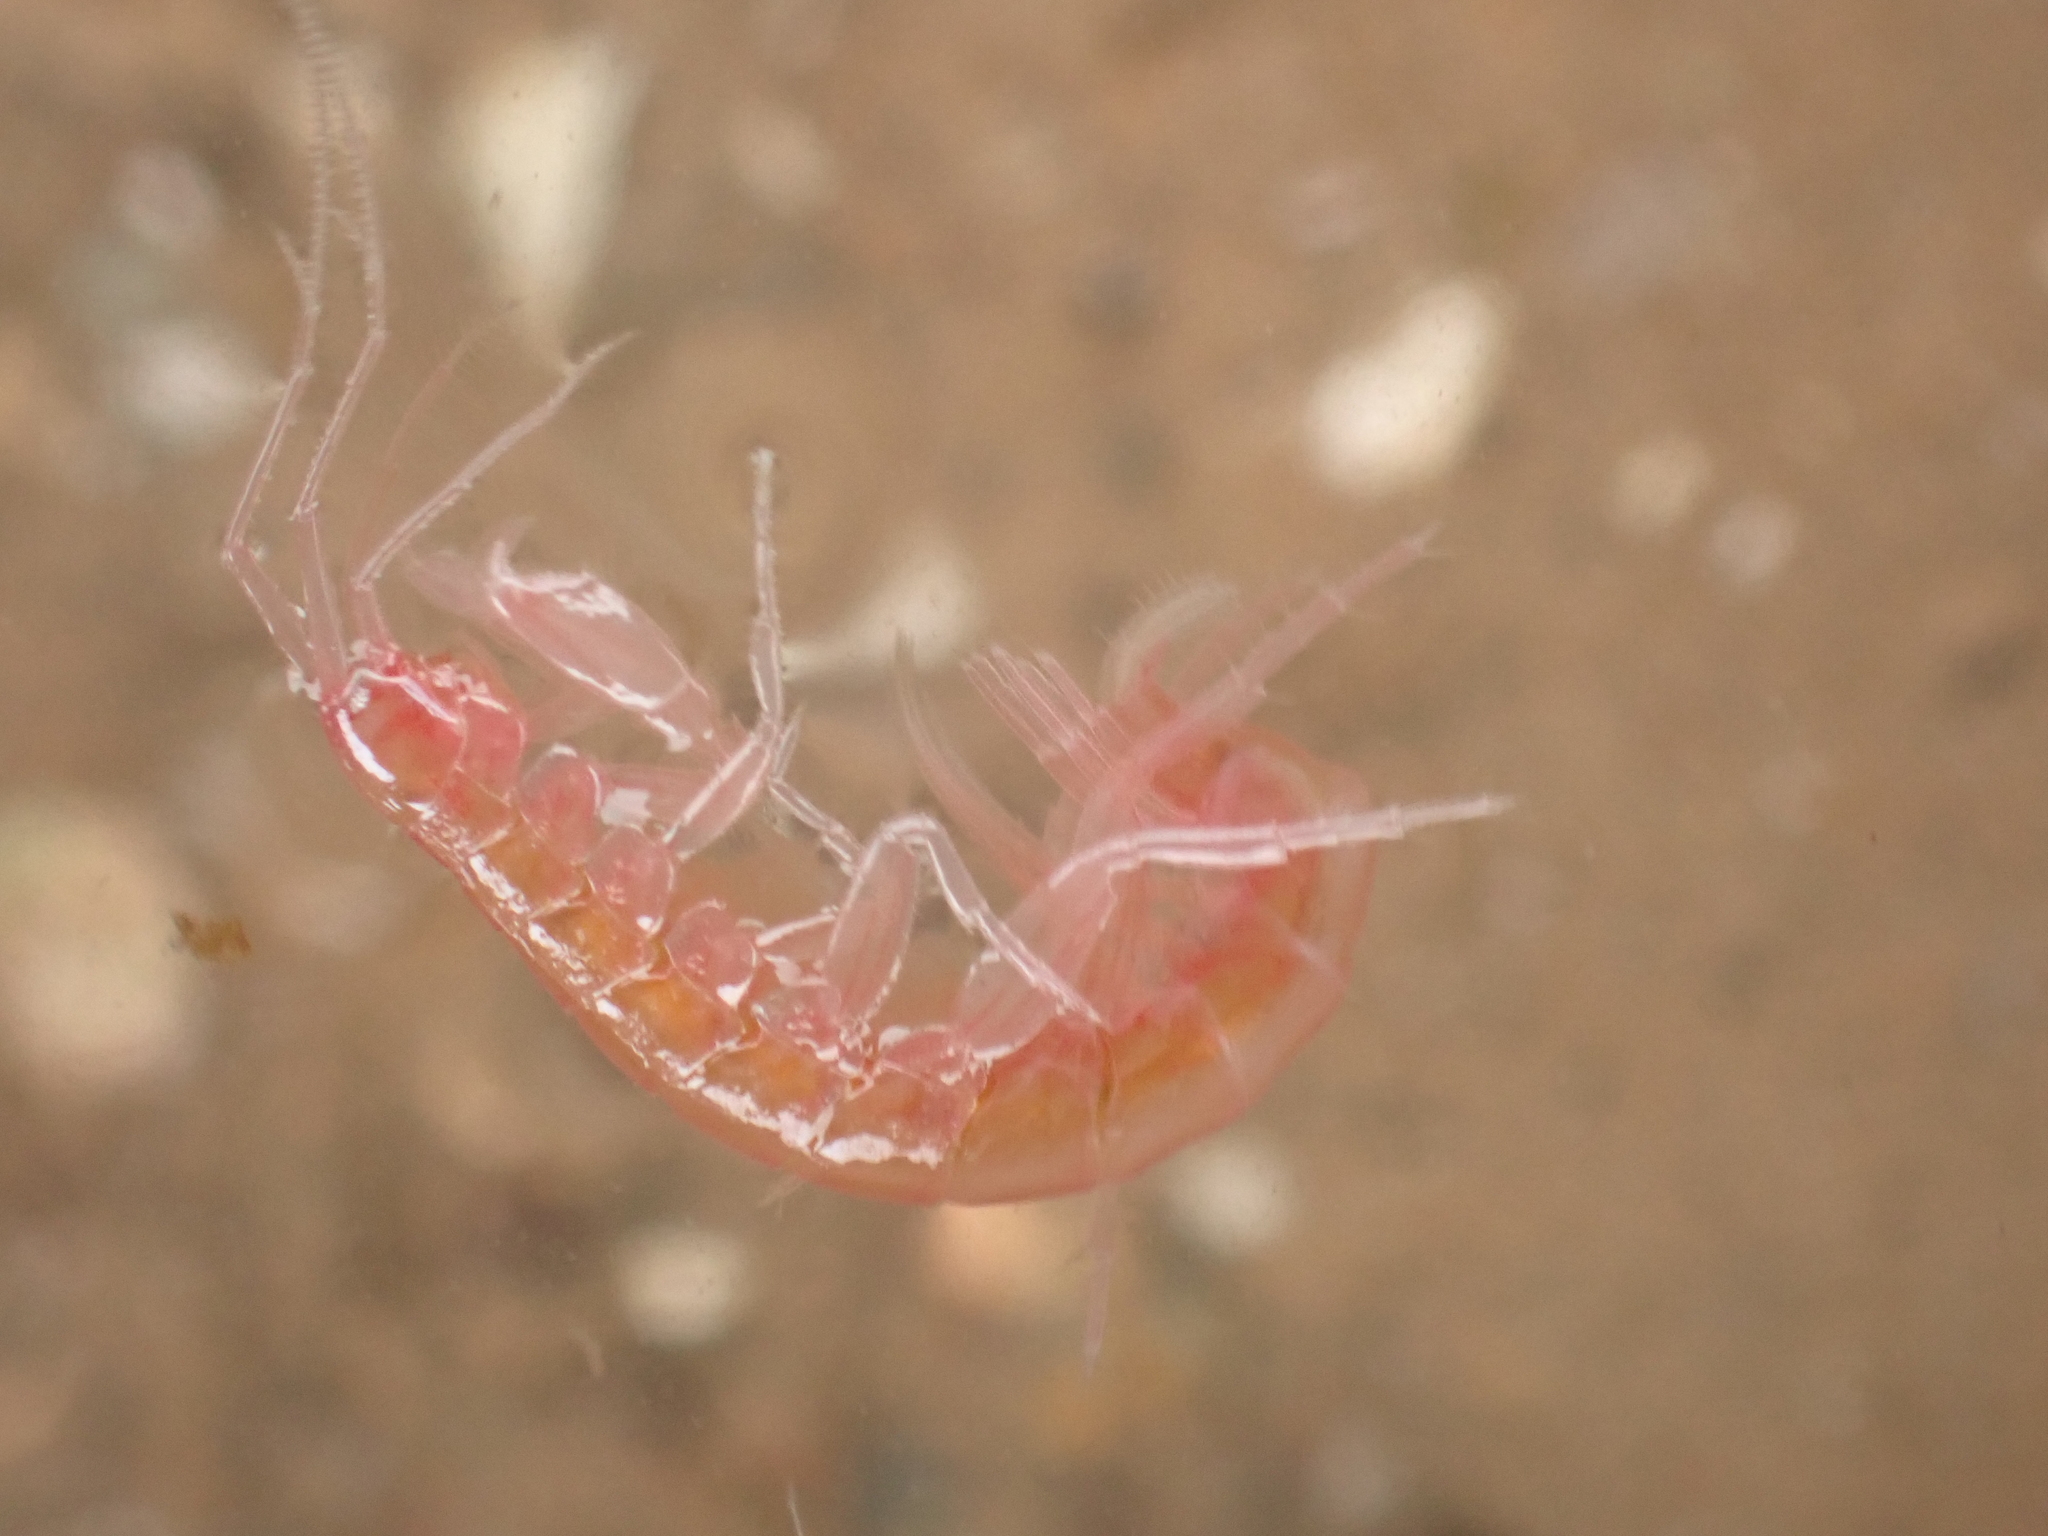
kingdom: Animalia
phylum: Arthropoda
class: Malacostraca
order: Amphipoda
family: Maeridae
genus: Maera
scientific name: Maera danae
